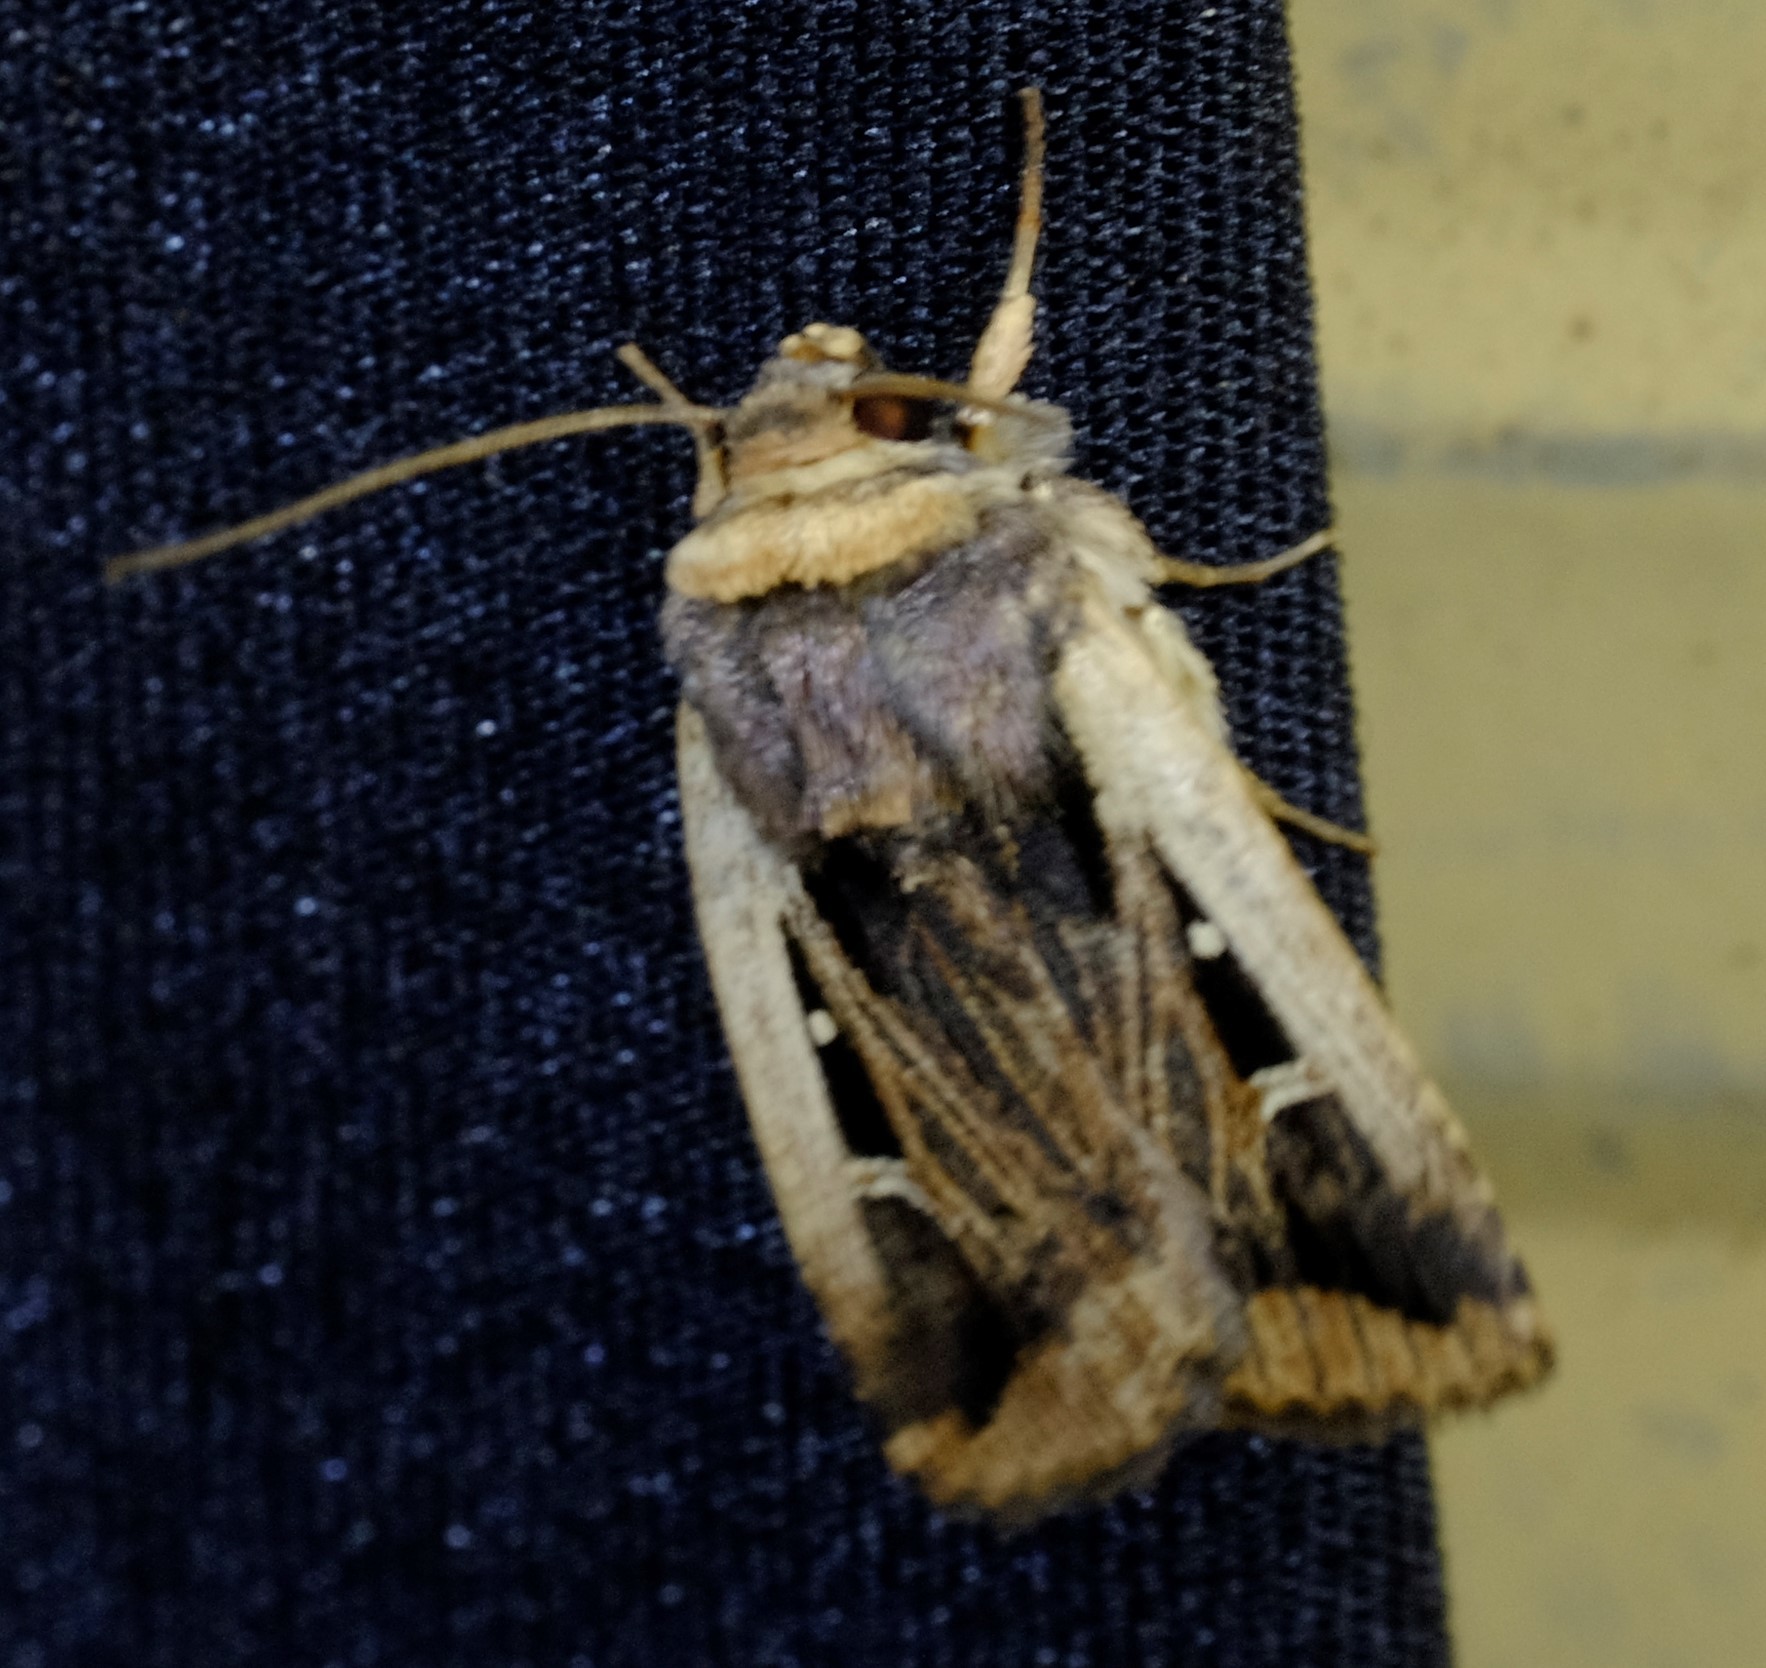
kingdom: Animalia
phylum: Arthropoda
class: Insecta
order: Lepidoptera
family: Noctuidae
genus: Proteuxoa
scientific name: Proteuxoa tortisigna
